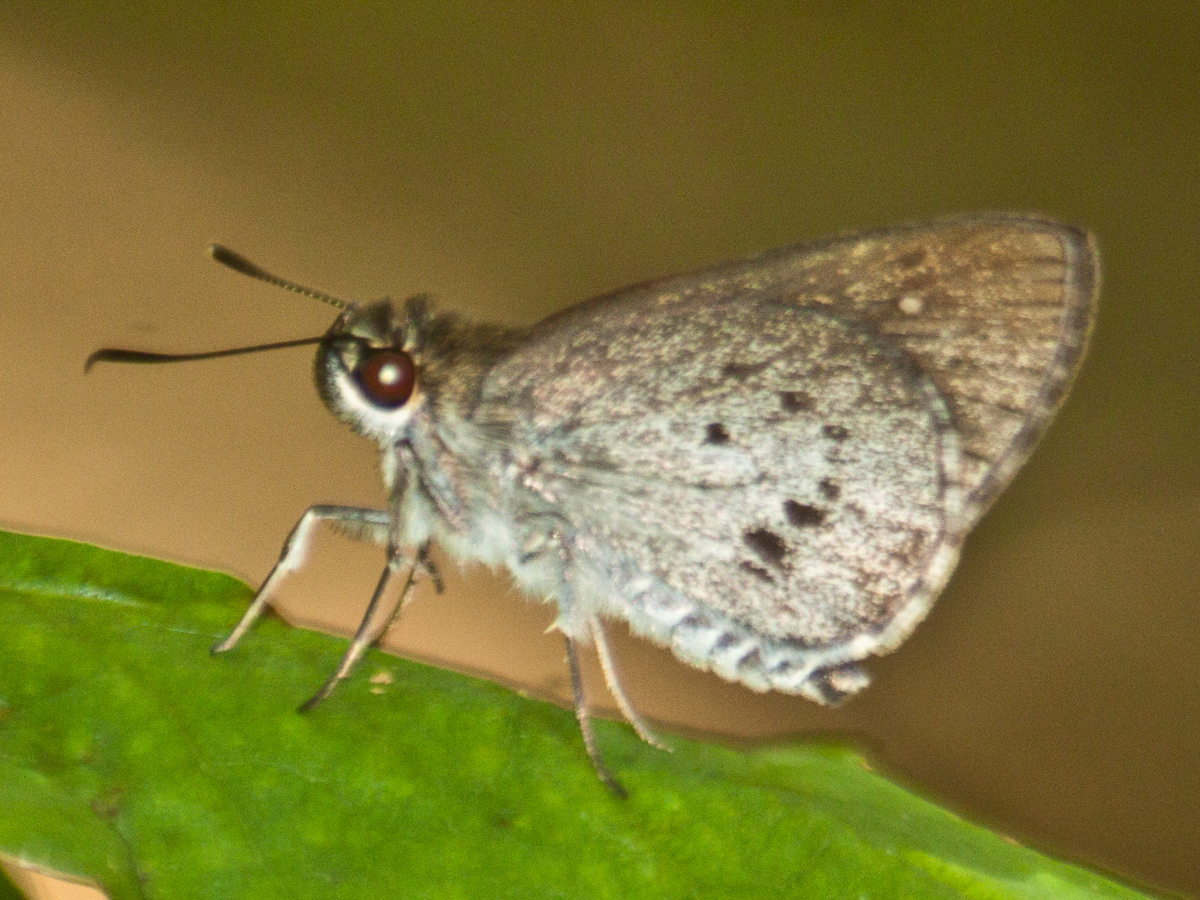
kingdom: Animalia
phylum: Arthropoda
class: Insecta
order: Lepidoptera
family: Hesperiidae
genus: Suastus
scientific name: Suastus minuta
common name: Small palm bob
